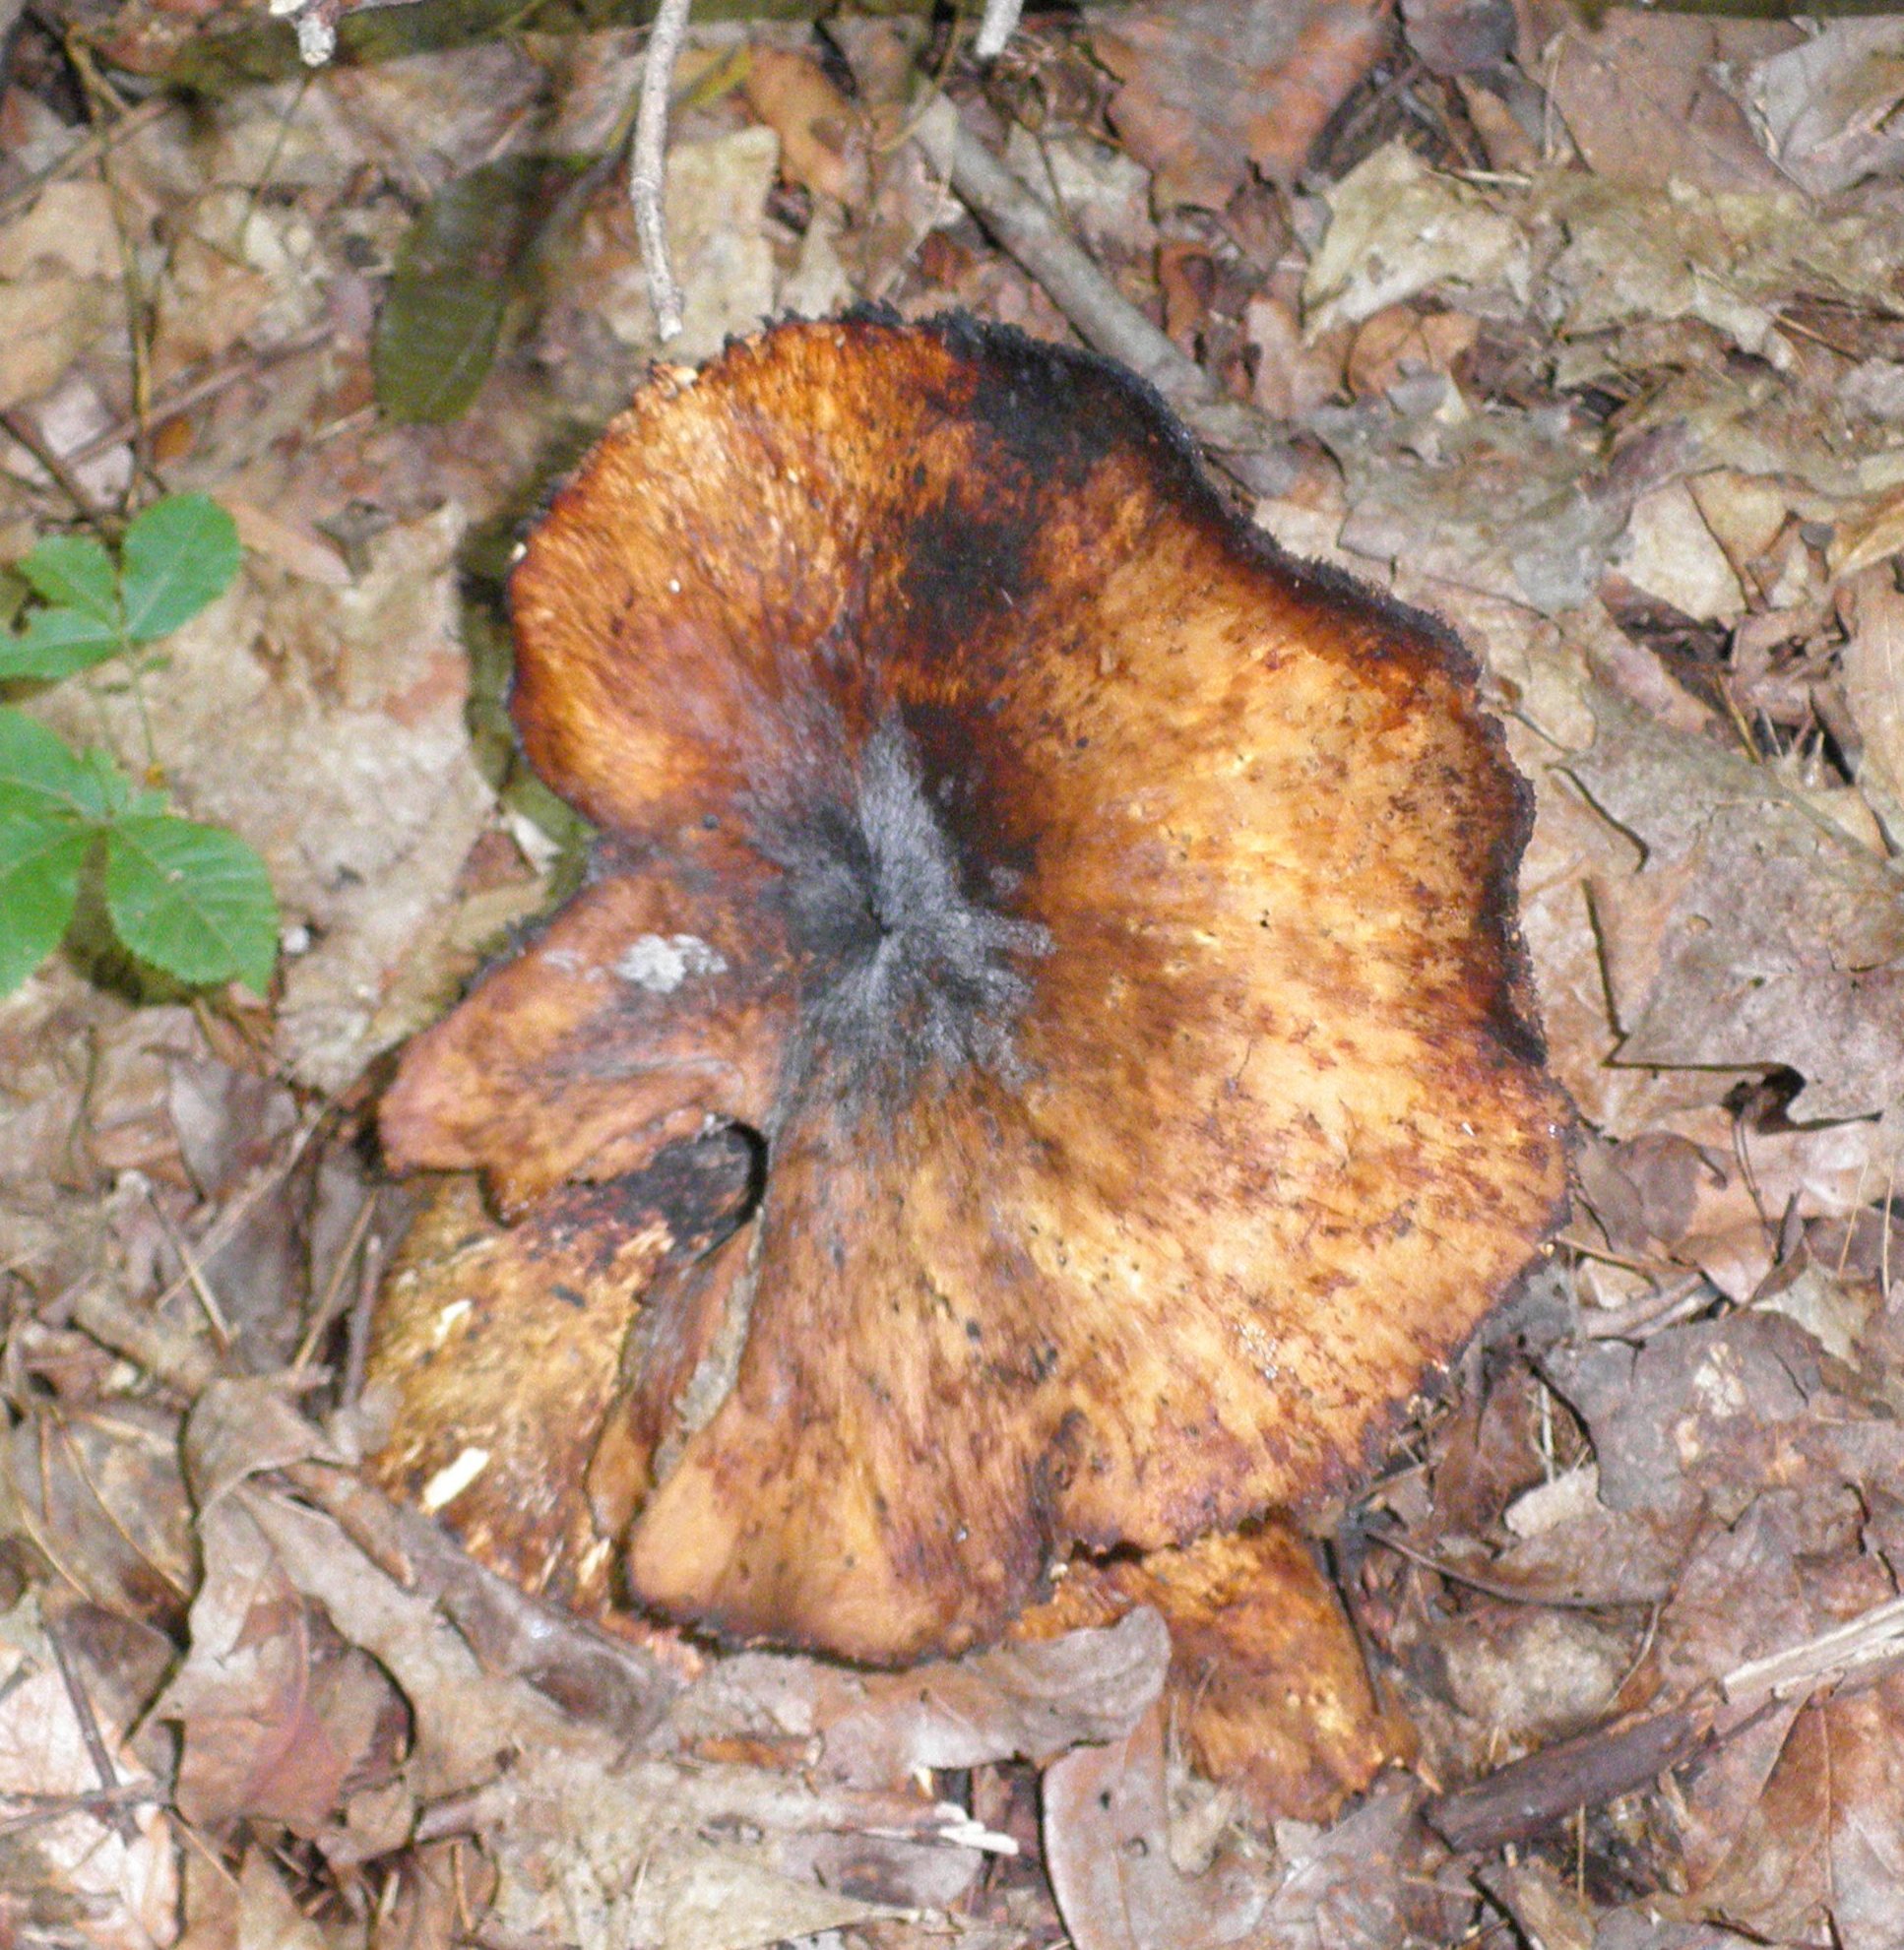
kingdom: Fungi
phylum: Basidiomycota
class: Agaricomycetes
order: Polyporales
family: Polyporaceae
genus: Cerioporus
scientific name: Cerioporus squamosus
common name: Dryad's saddle
